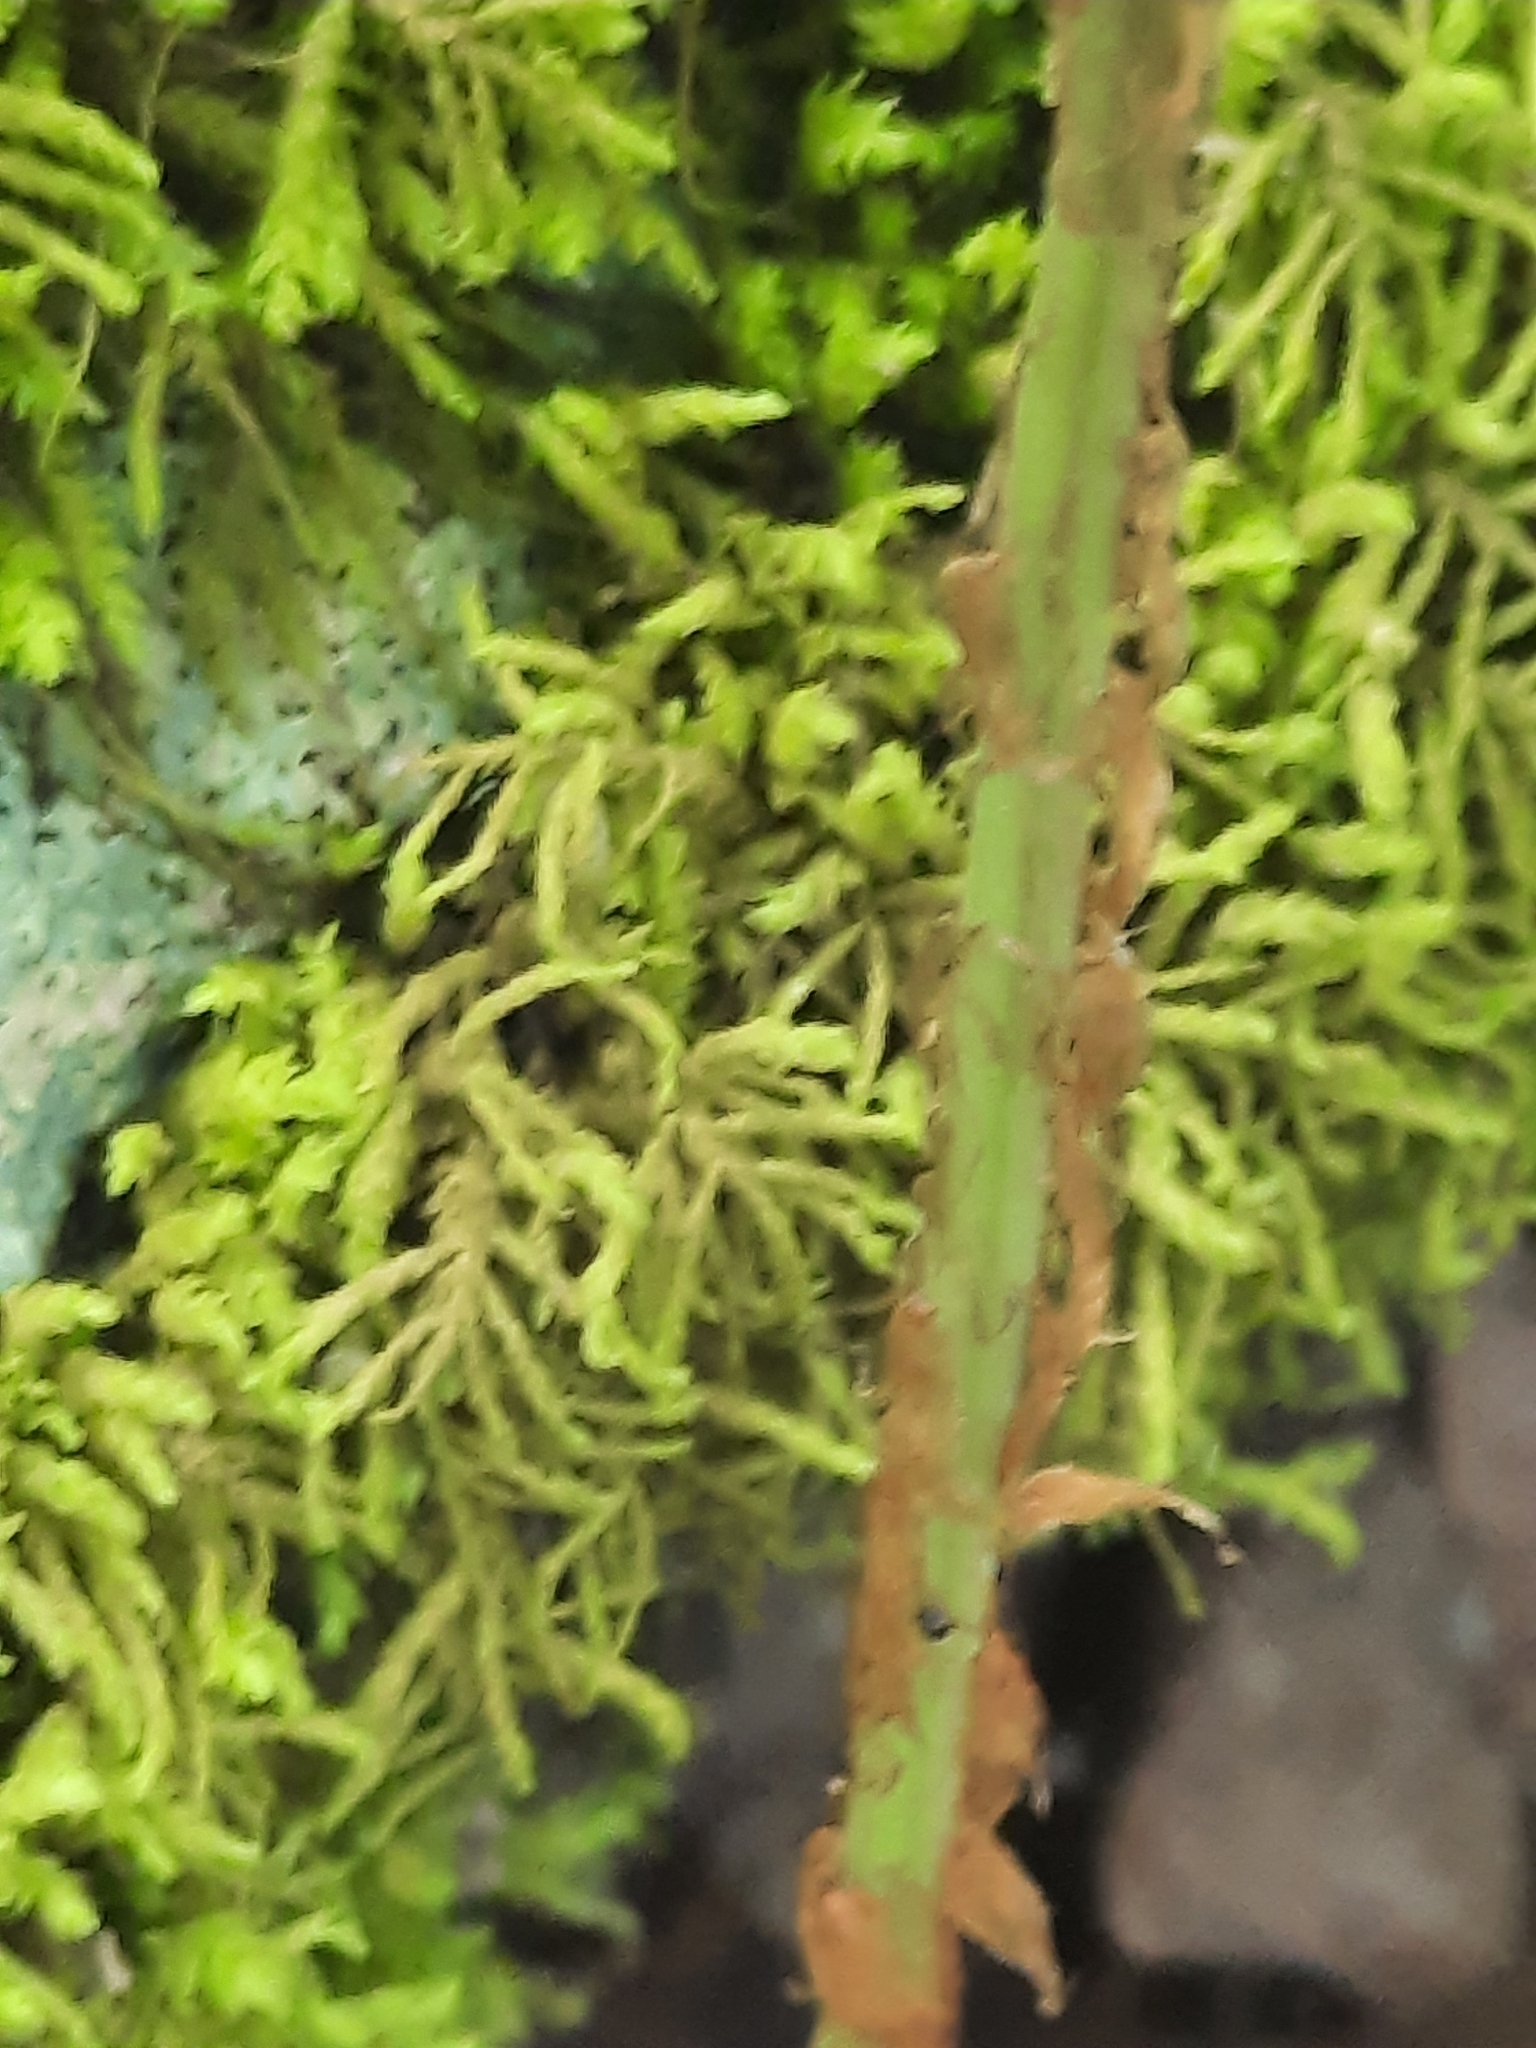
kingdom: Plantae
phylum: Tracheophyta
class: Polypodiopsida
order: Polypodiales
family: Dryopteridaceae
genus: Dryopteris
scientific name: Dryopteris marginalis
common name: Marginal wood fern
